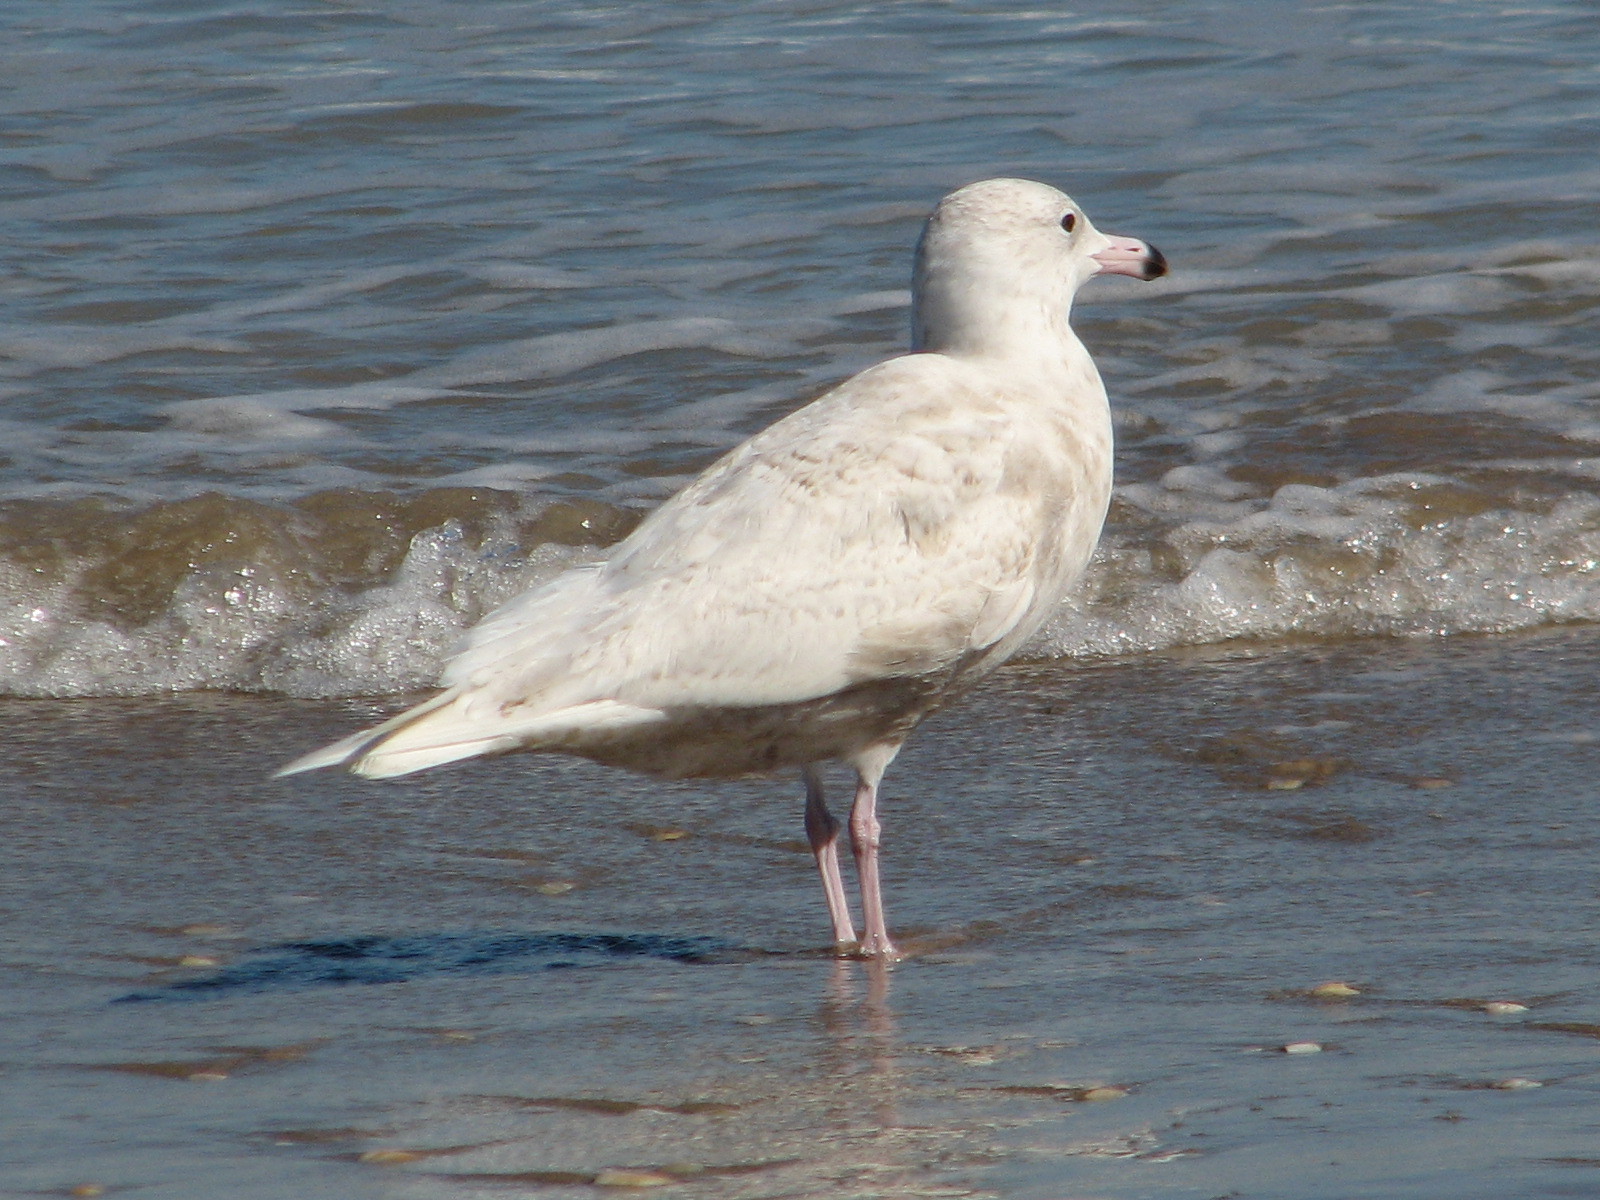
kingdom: Animalia
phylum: Chordata
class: Aves
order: Charadriiformes
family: Laridae
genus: Larus
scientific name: Larus hyperboreus
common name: Glaucous gull
